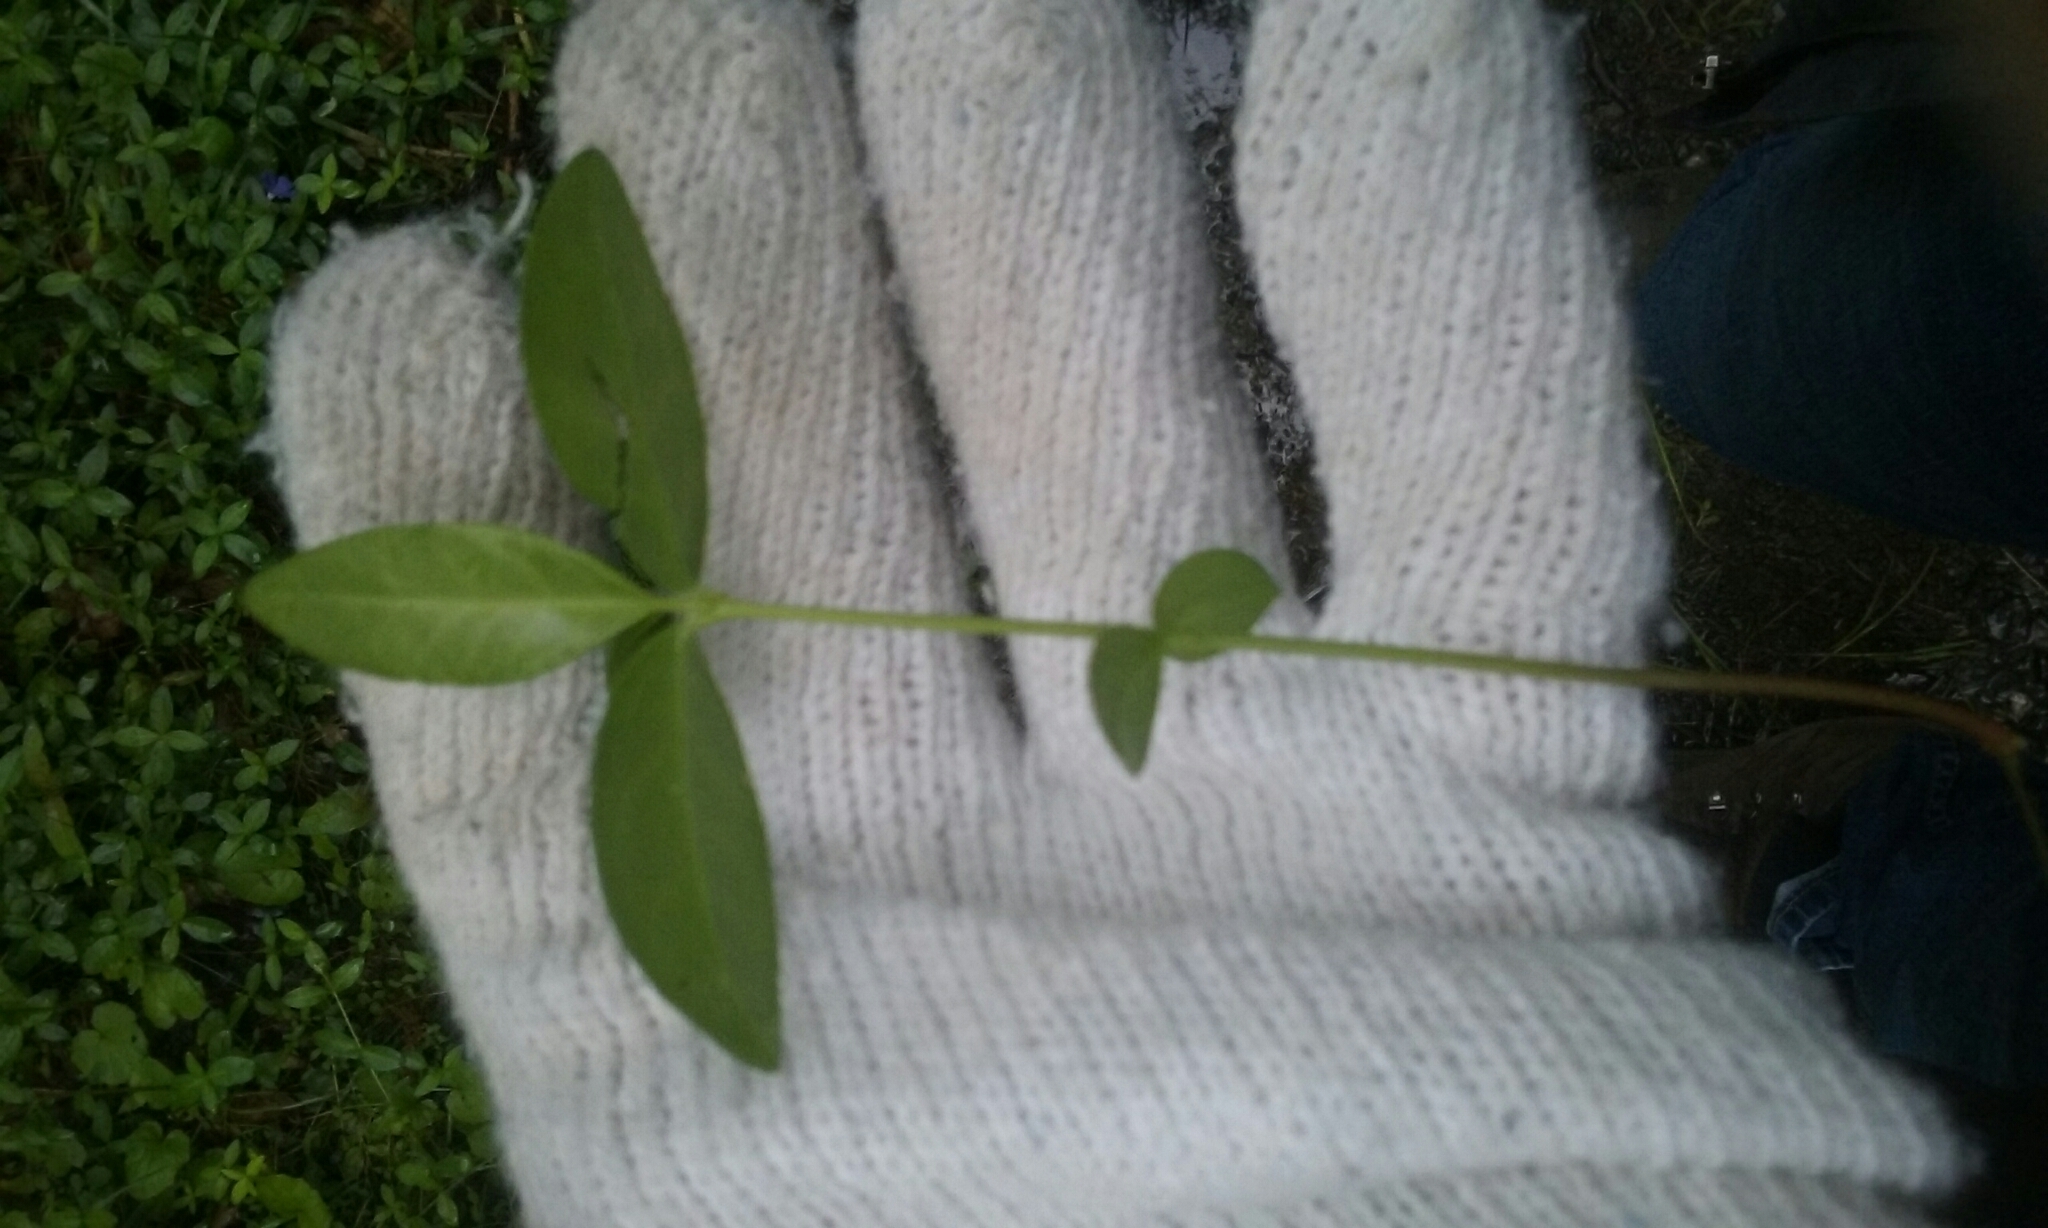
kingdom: Plantae
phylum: Tracheophyta
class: Magnoliopsida
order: Gentianales
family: Apocynaceae
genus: Vinca
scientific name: Vinca minor
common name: Lesser periwinkle
